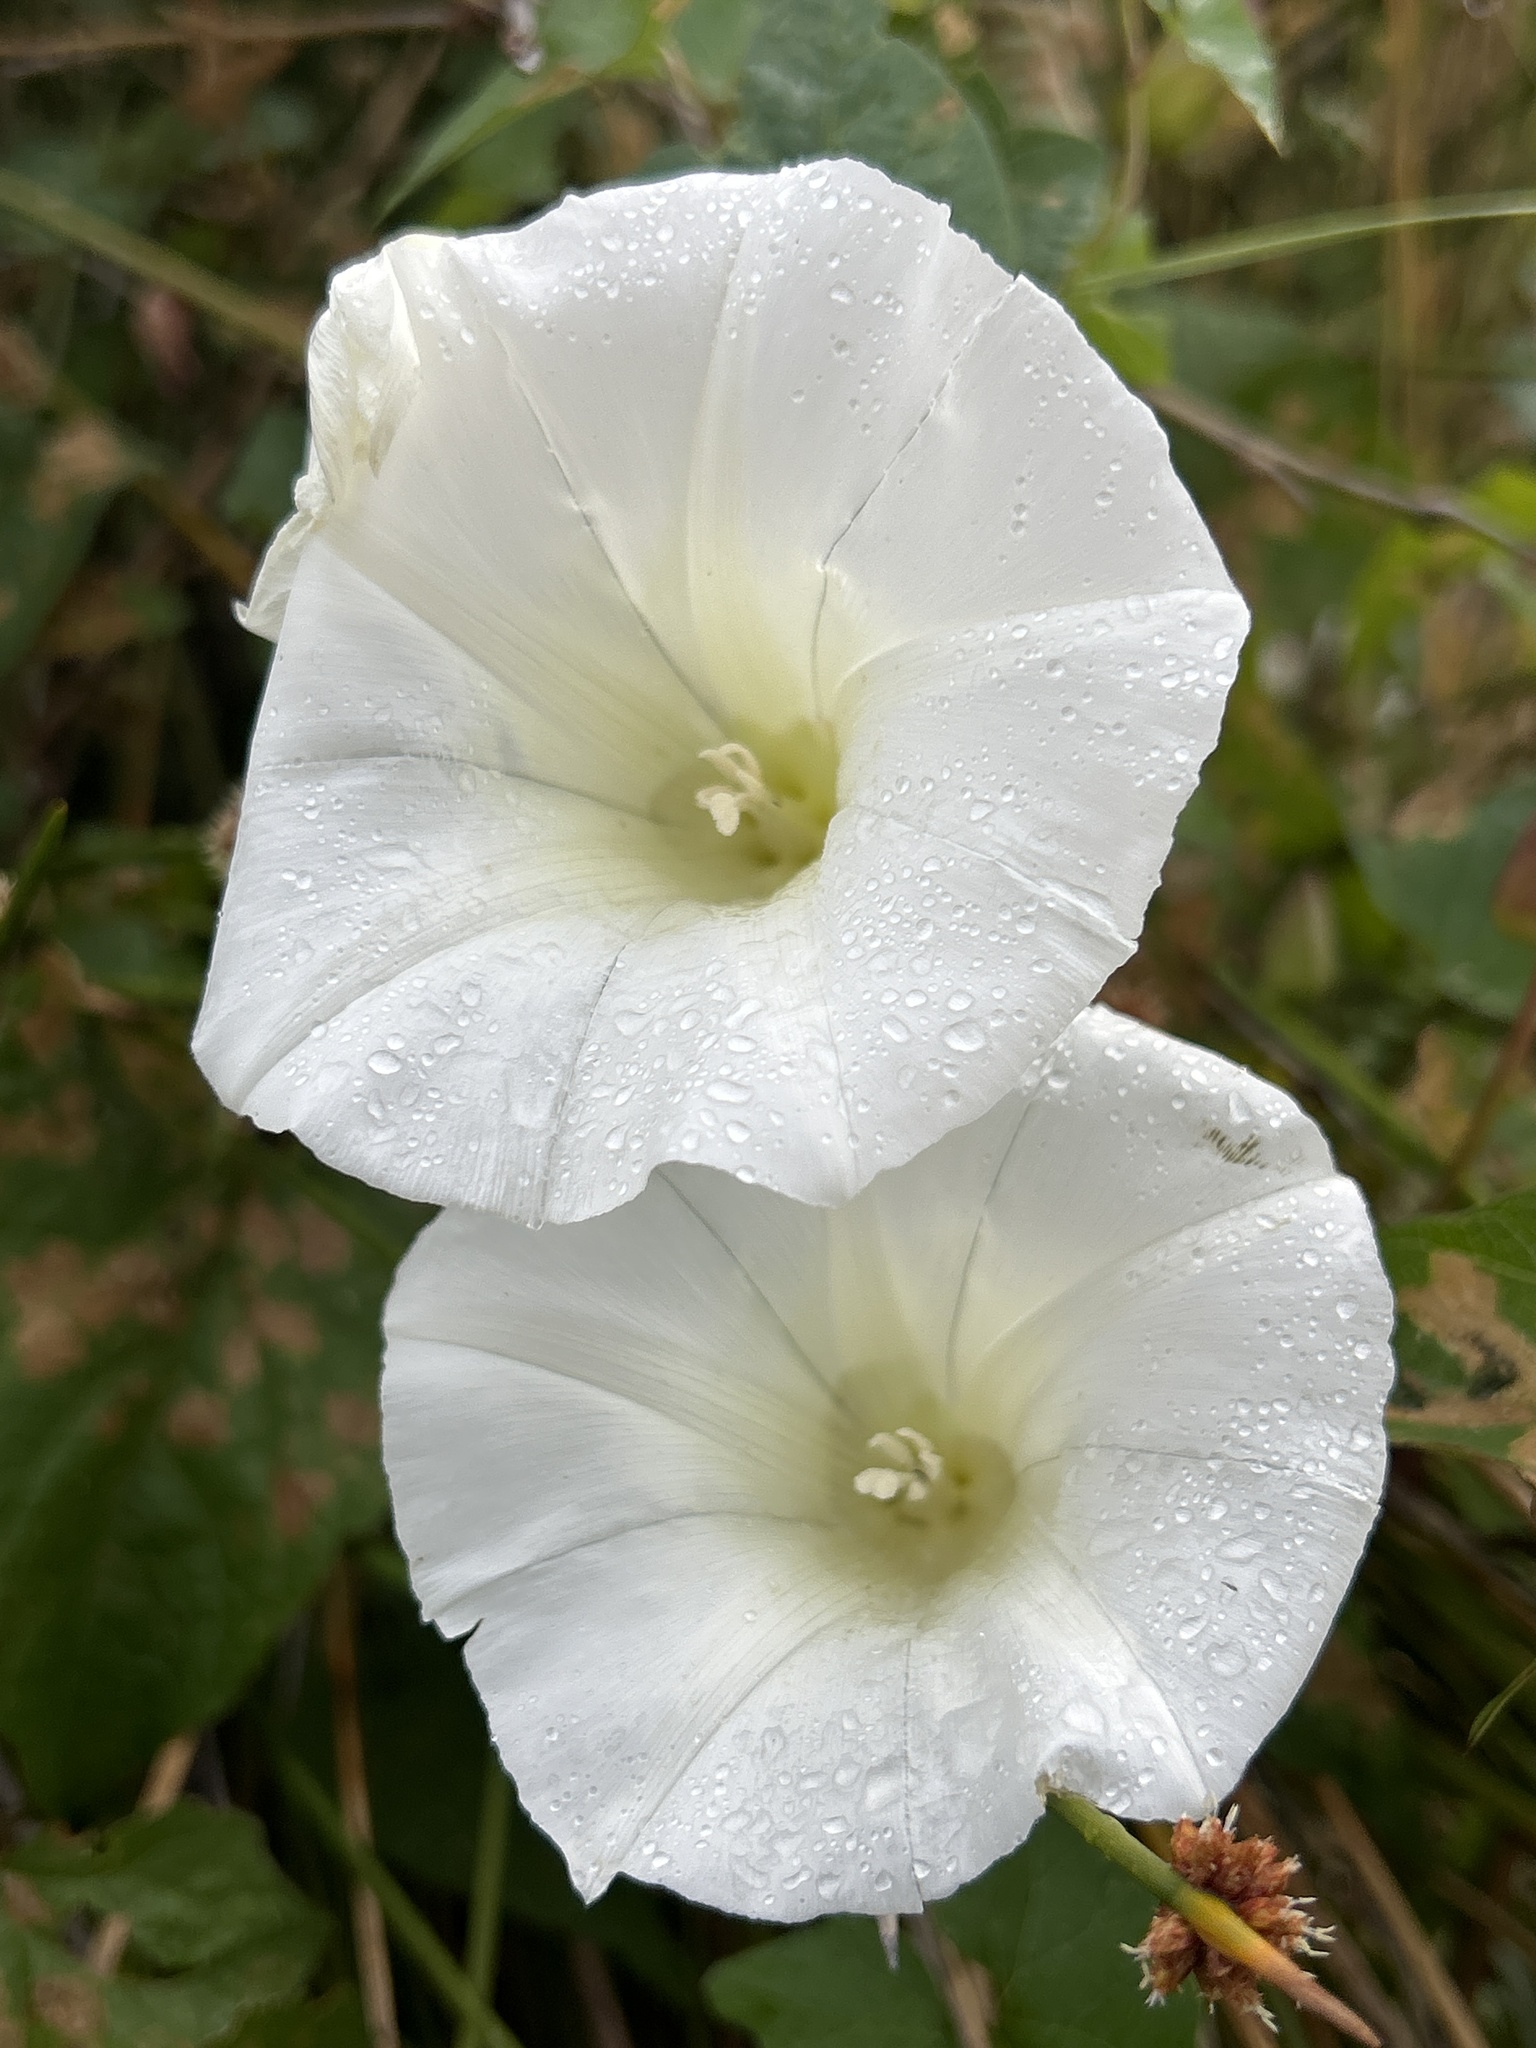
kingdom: Plantae
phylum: Tracheophyta
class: Magnoliopsida
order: Solanales
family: Convolvulaceae
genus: Calystegia
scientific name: Calystegia silvatica
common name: Large bindweed
